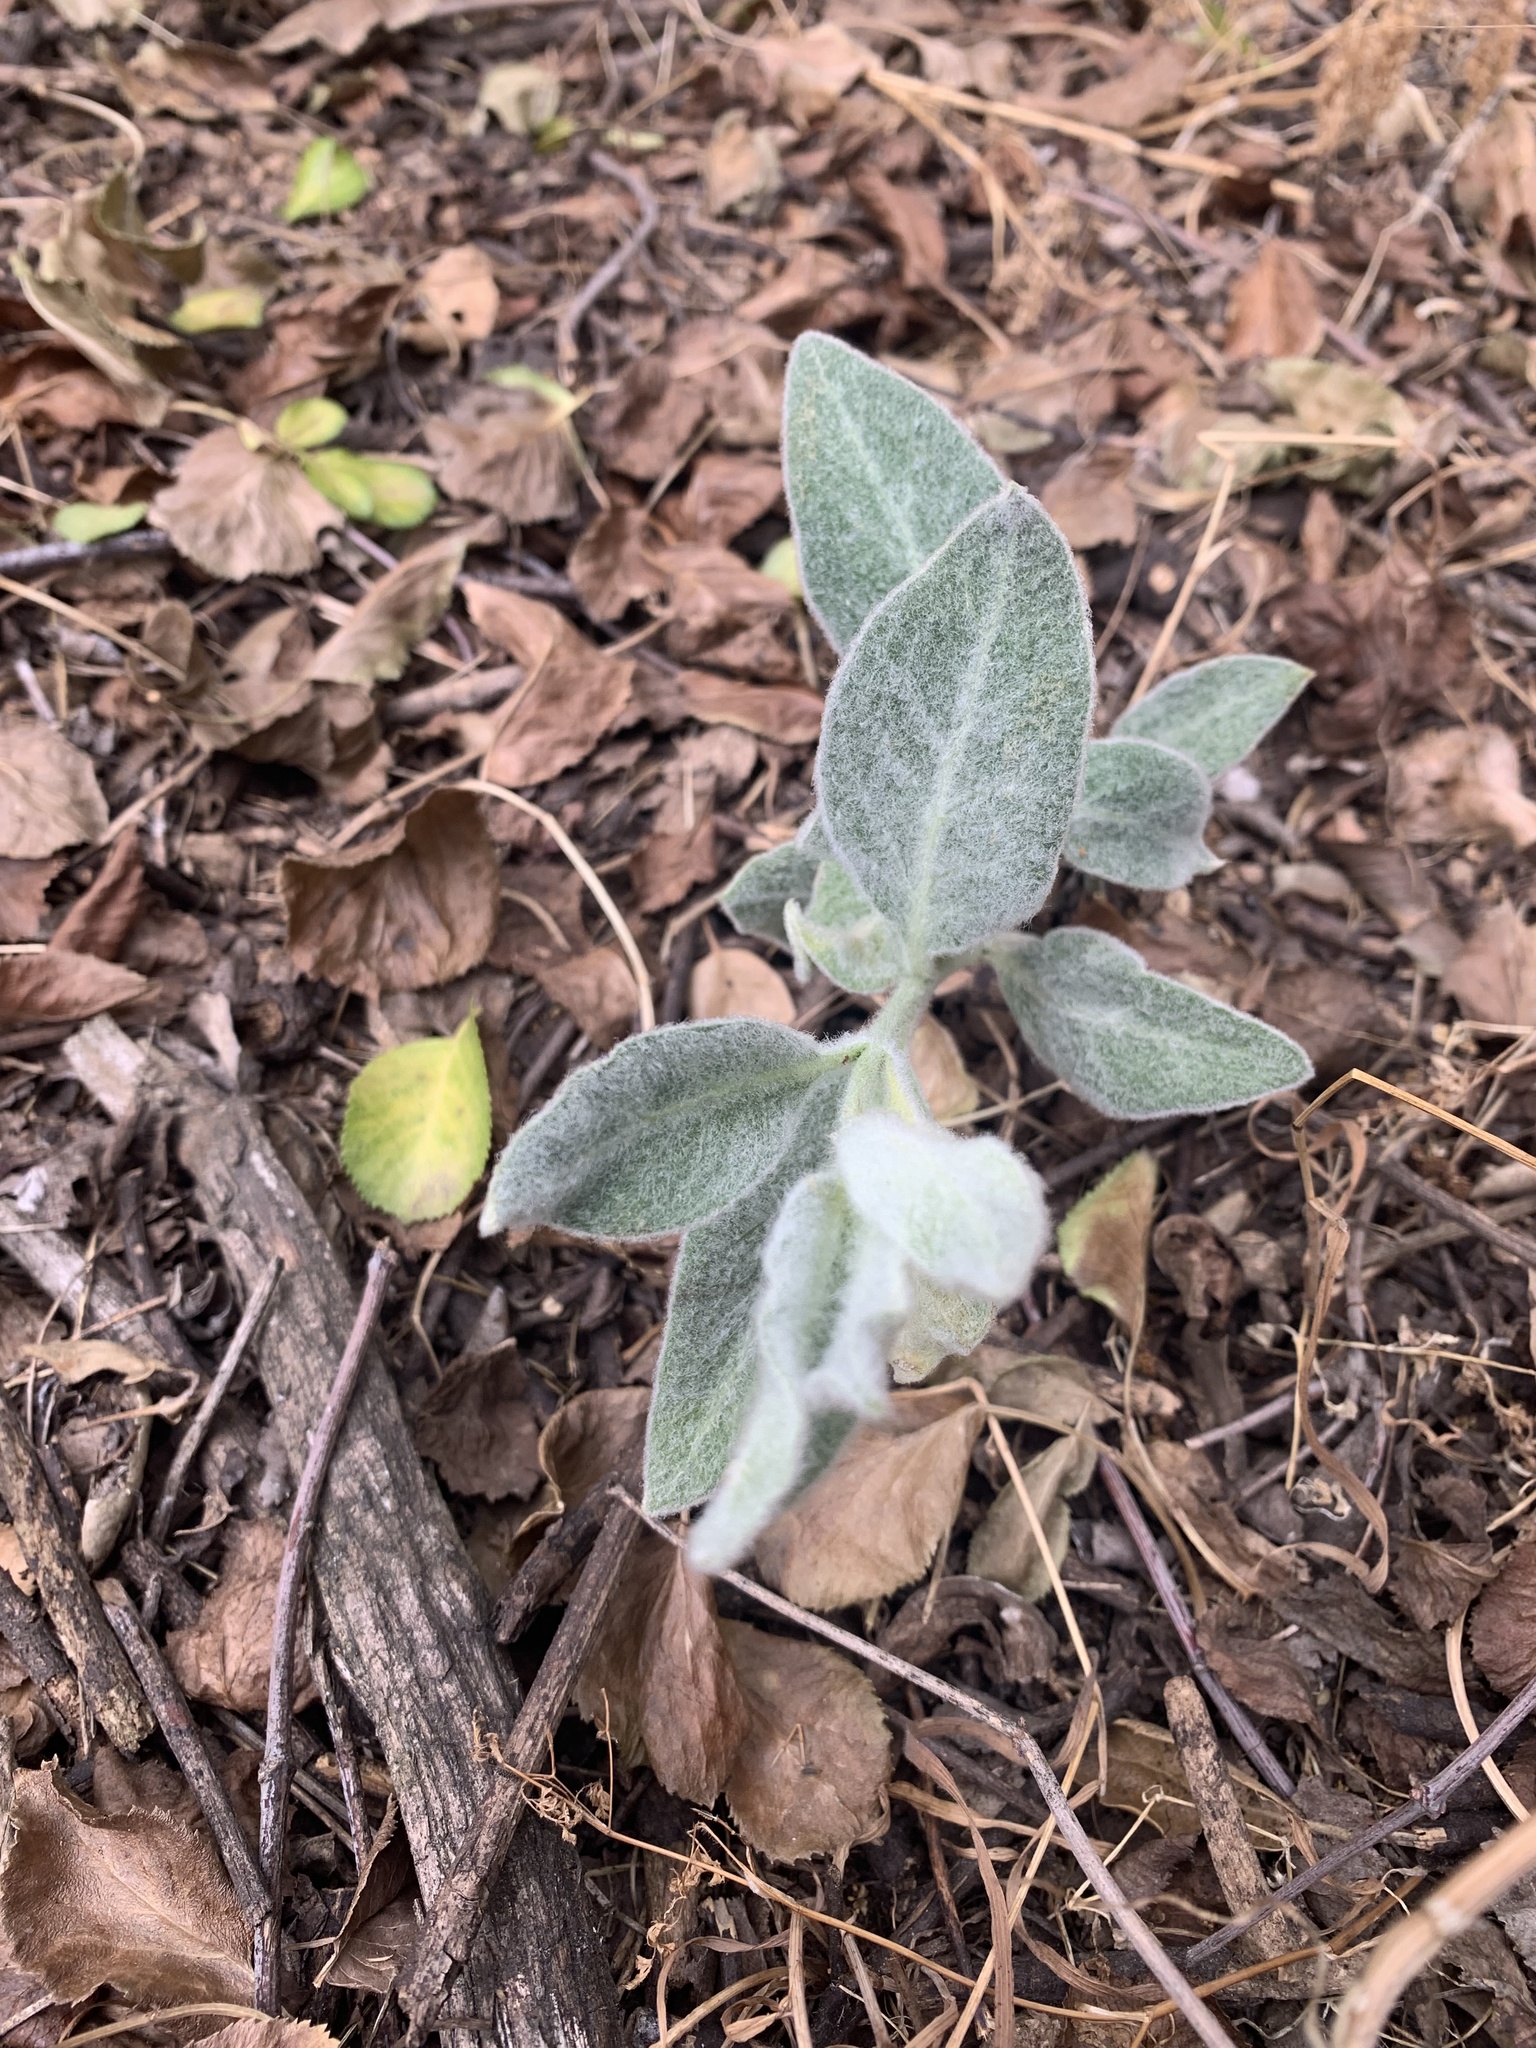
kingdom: Plantae
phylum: Tracheophyta
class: Magnoliopsida
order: Gentianales
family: Apocynaceae
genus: Asclepias
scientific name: Asclepias eriocarpa
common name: Indian milkweed
